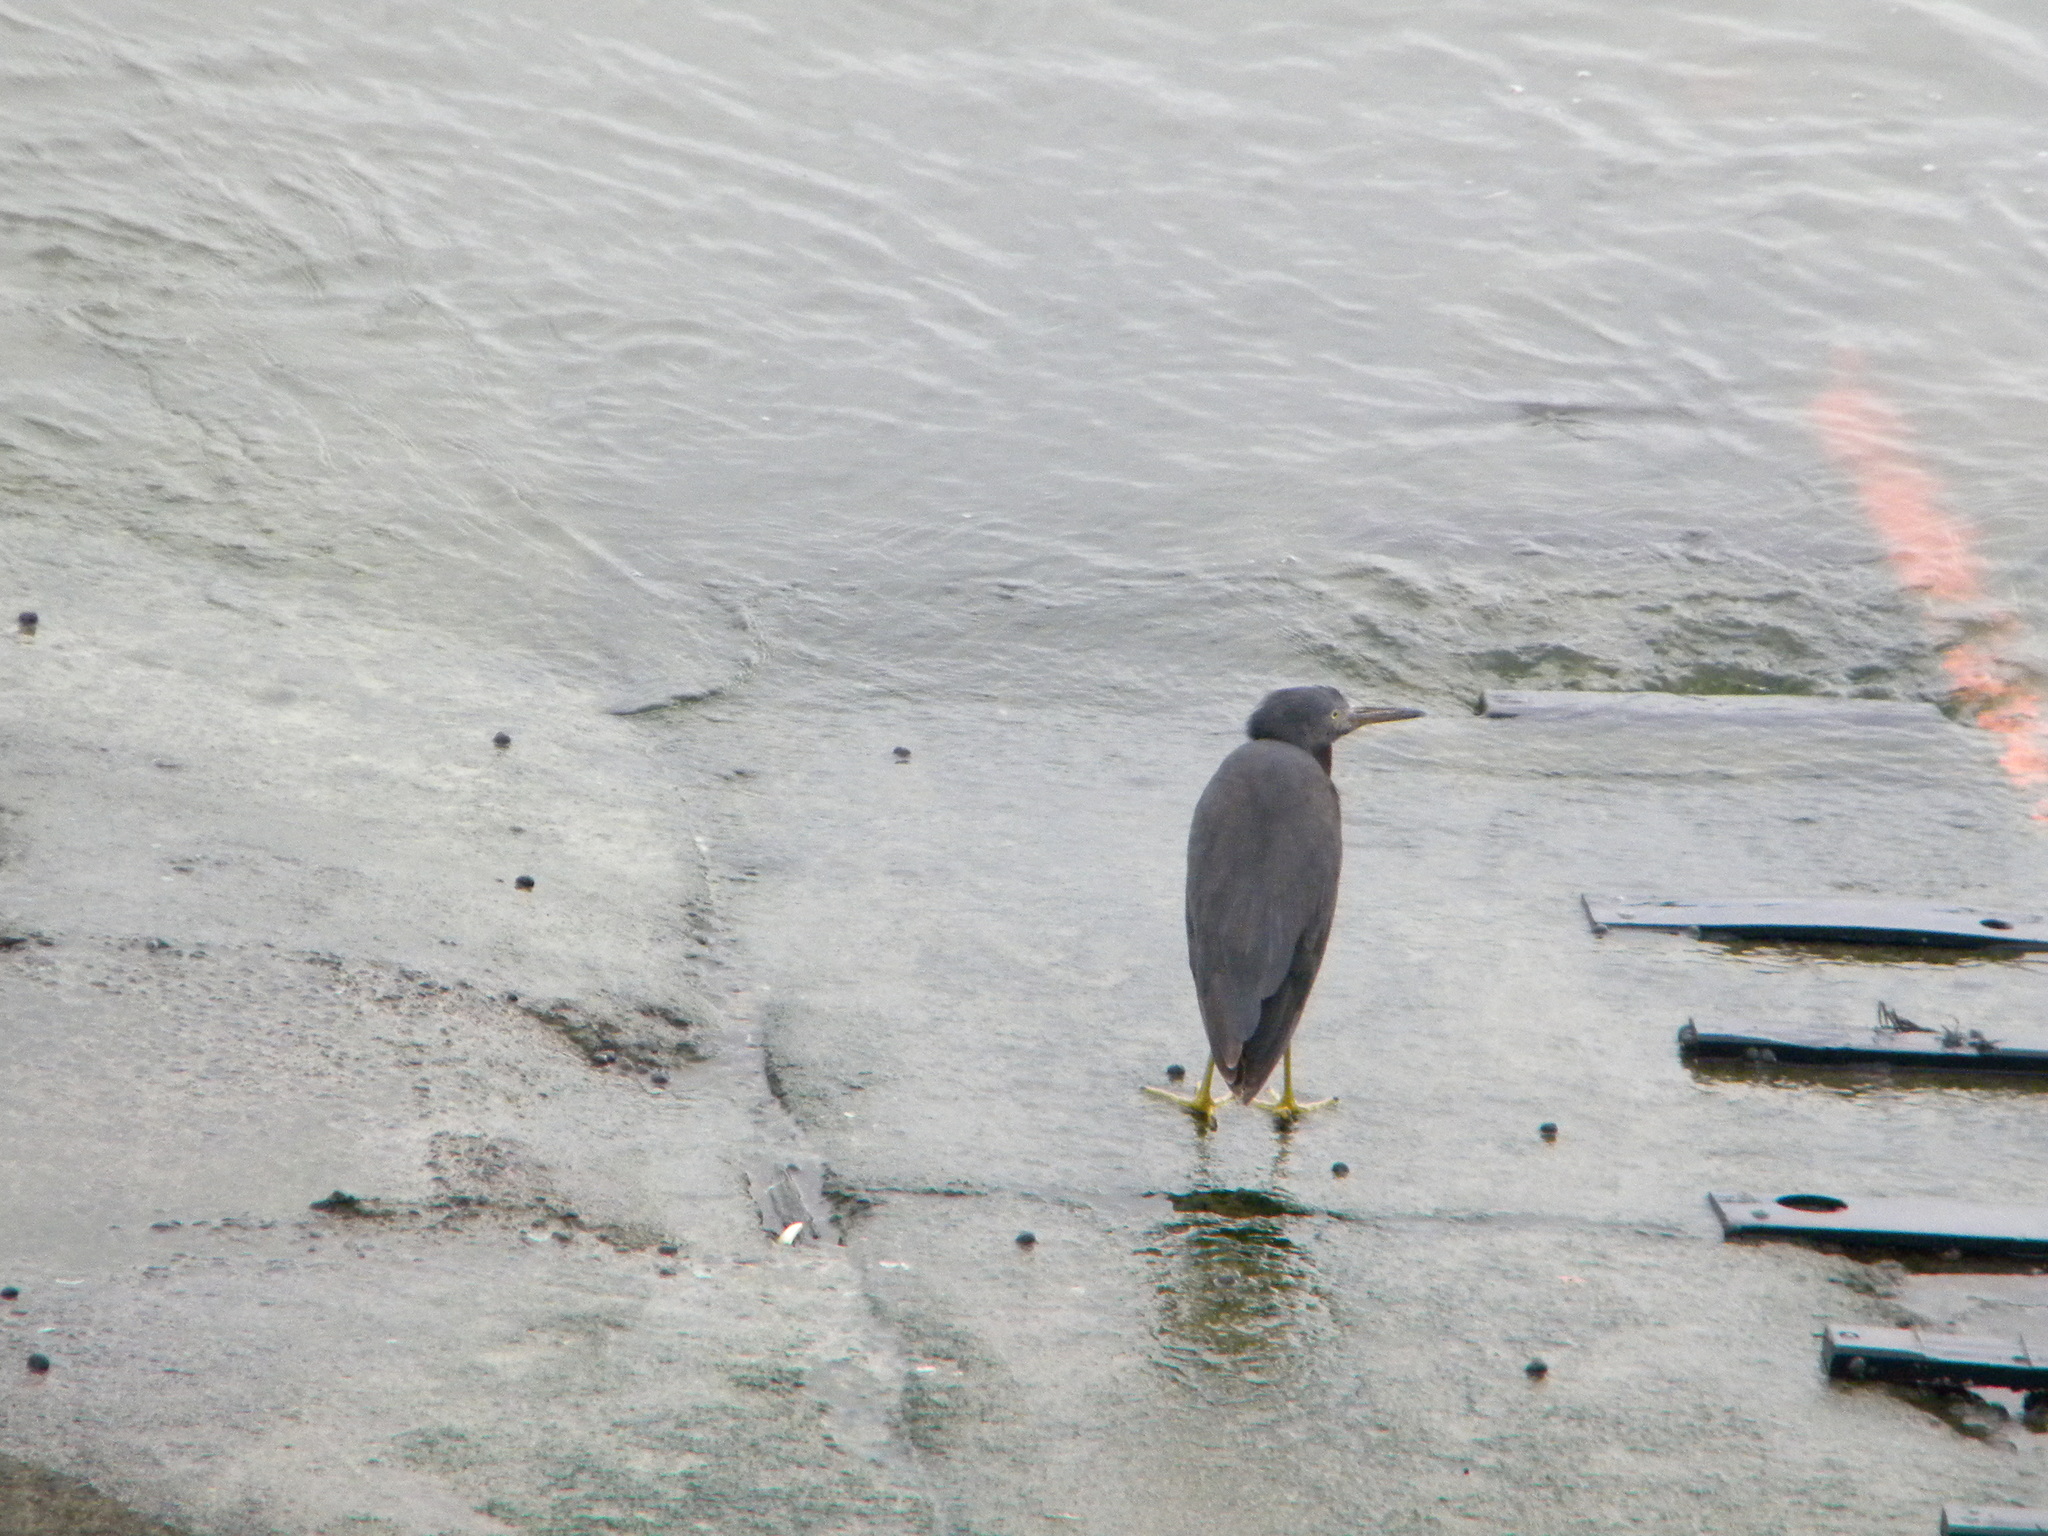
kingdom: Animalia
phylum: Chordata
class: Aves
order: Pelecaniformes
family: Ardeidae
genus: Egretta
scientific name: Egretta sacra
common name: Pacific reef heron
